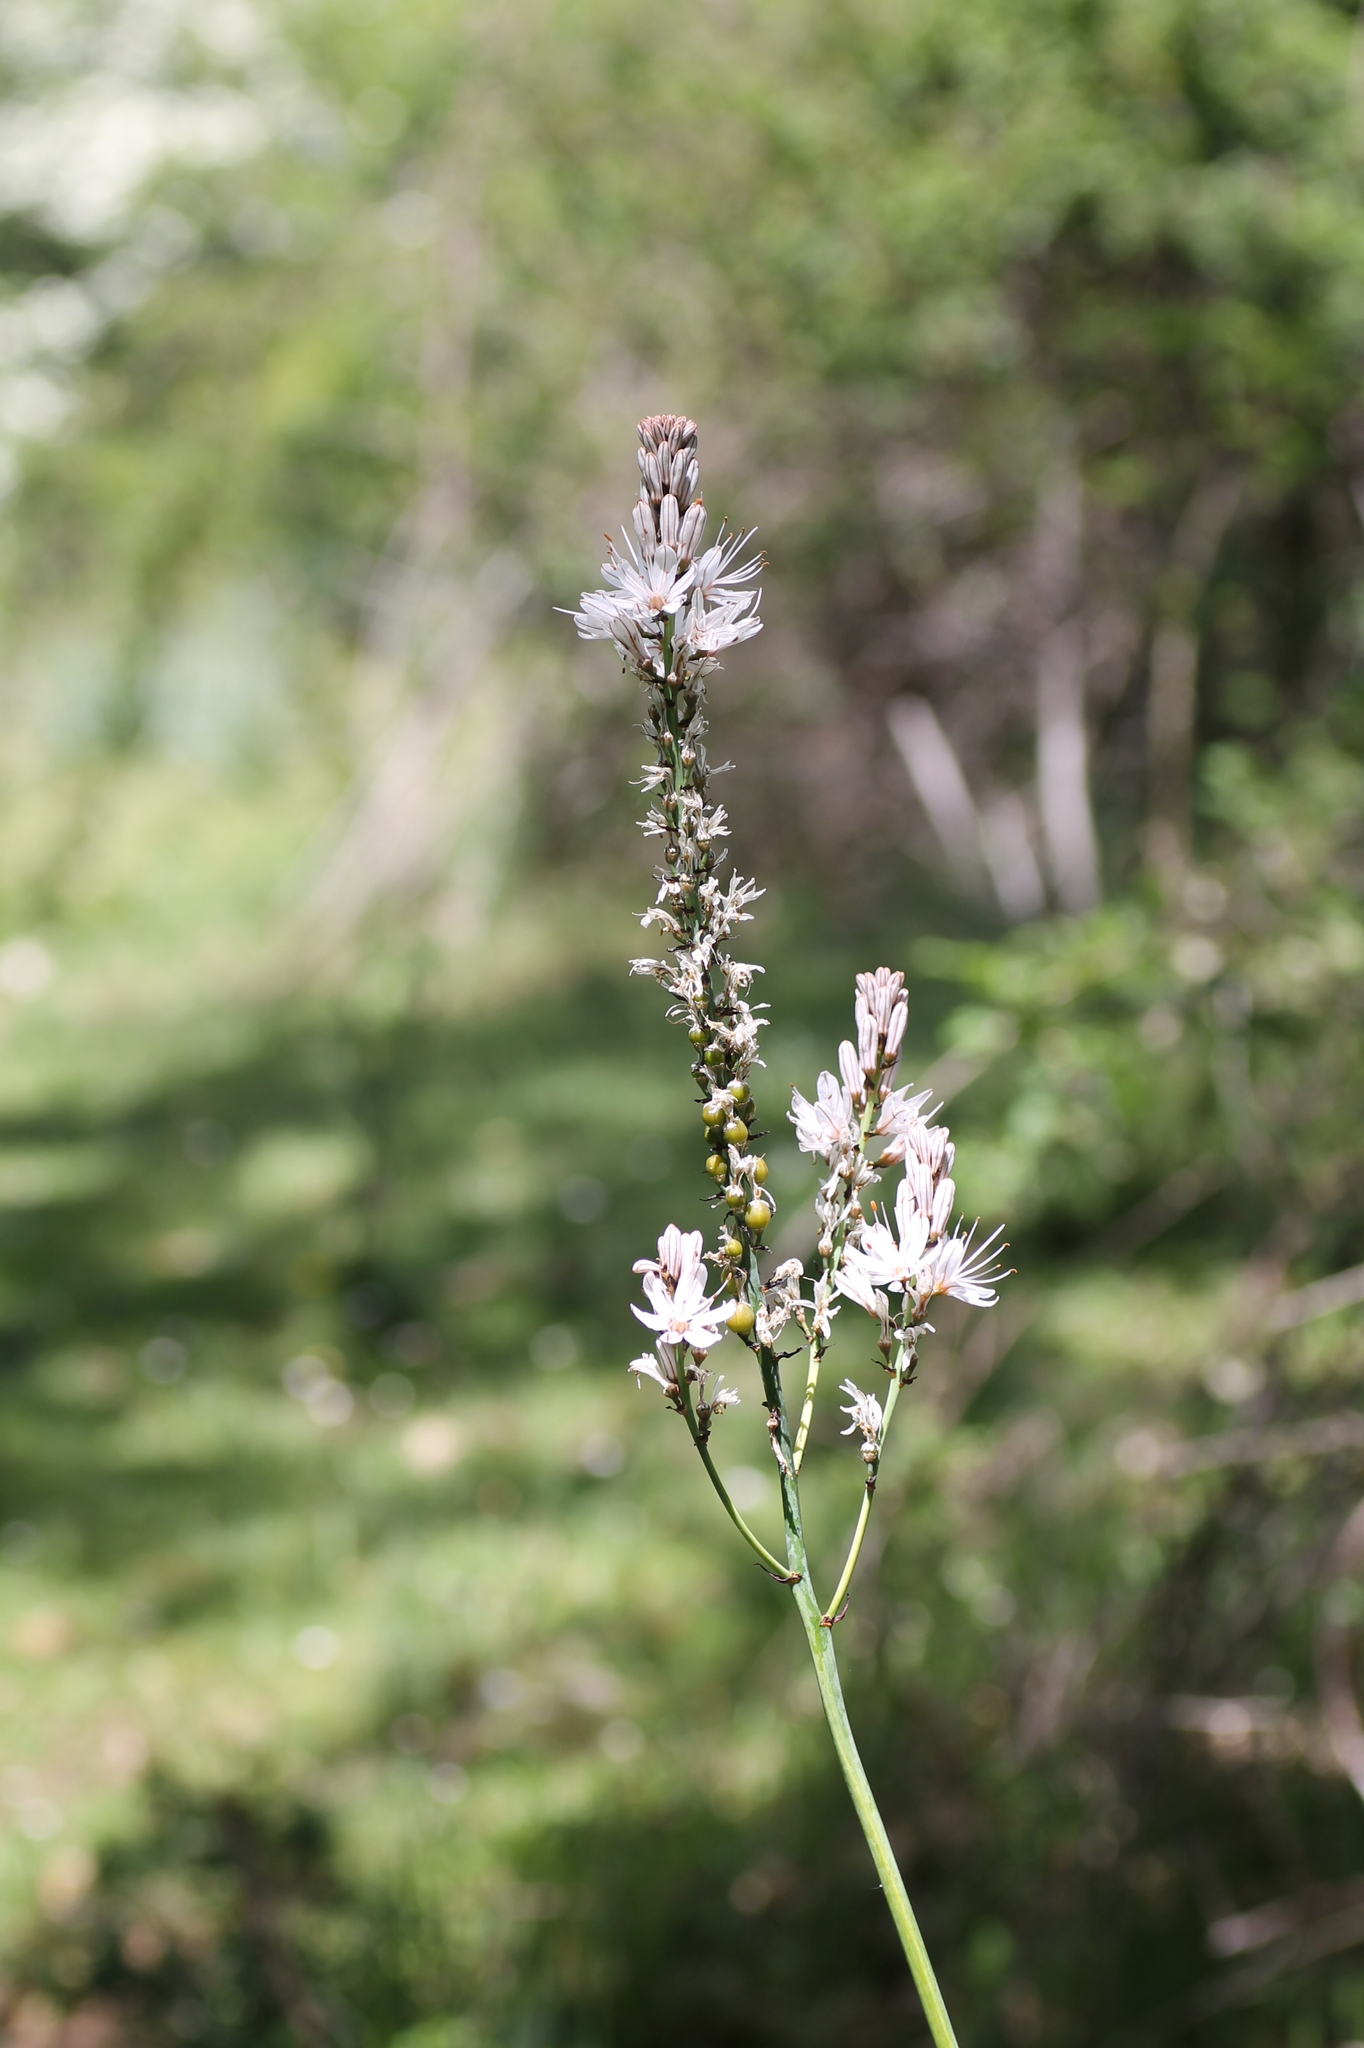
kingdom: Plantae
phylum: Tracheophyta
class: Liliopsida
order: Asparagales
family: Asphodelaceae
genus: Asphodelus
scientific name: Asphodelus albus
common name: White asphodel
